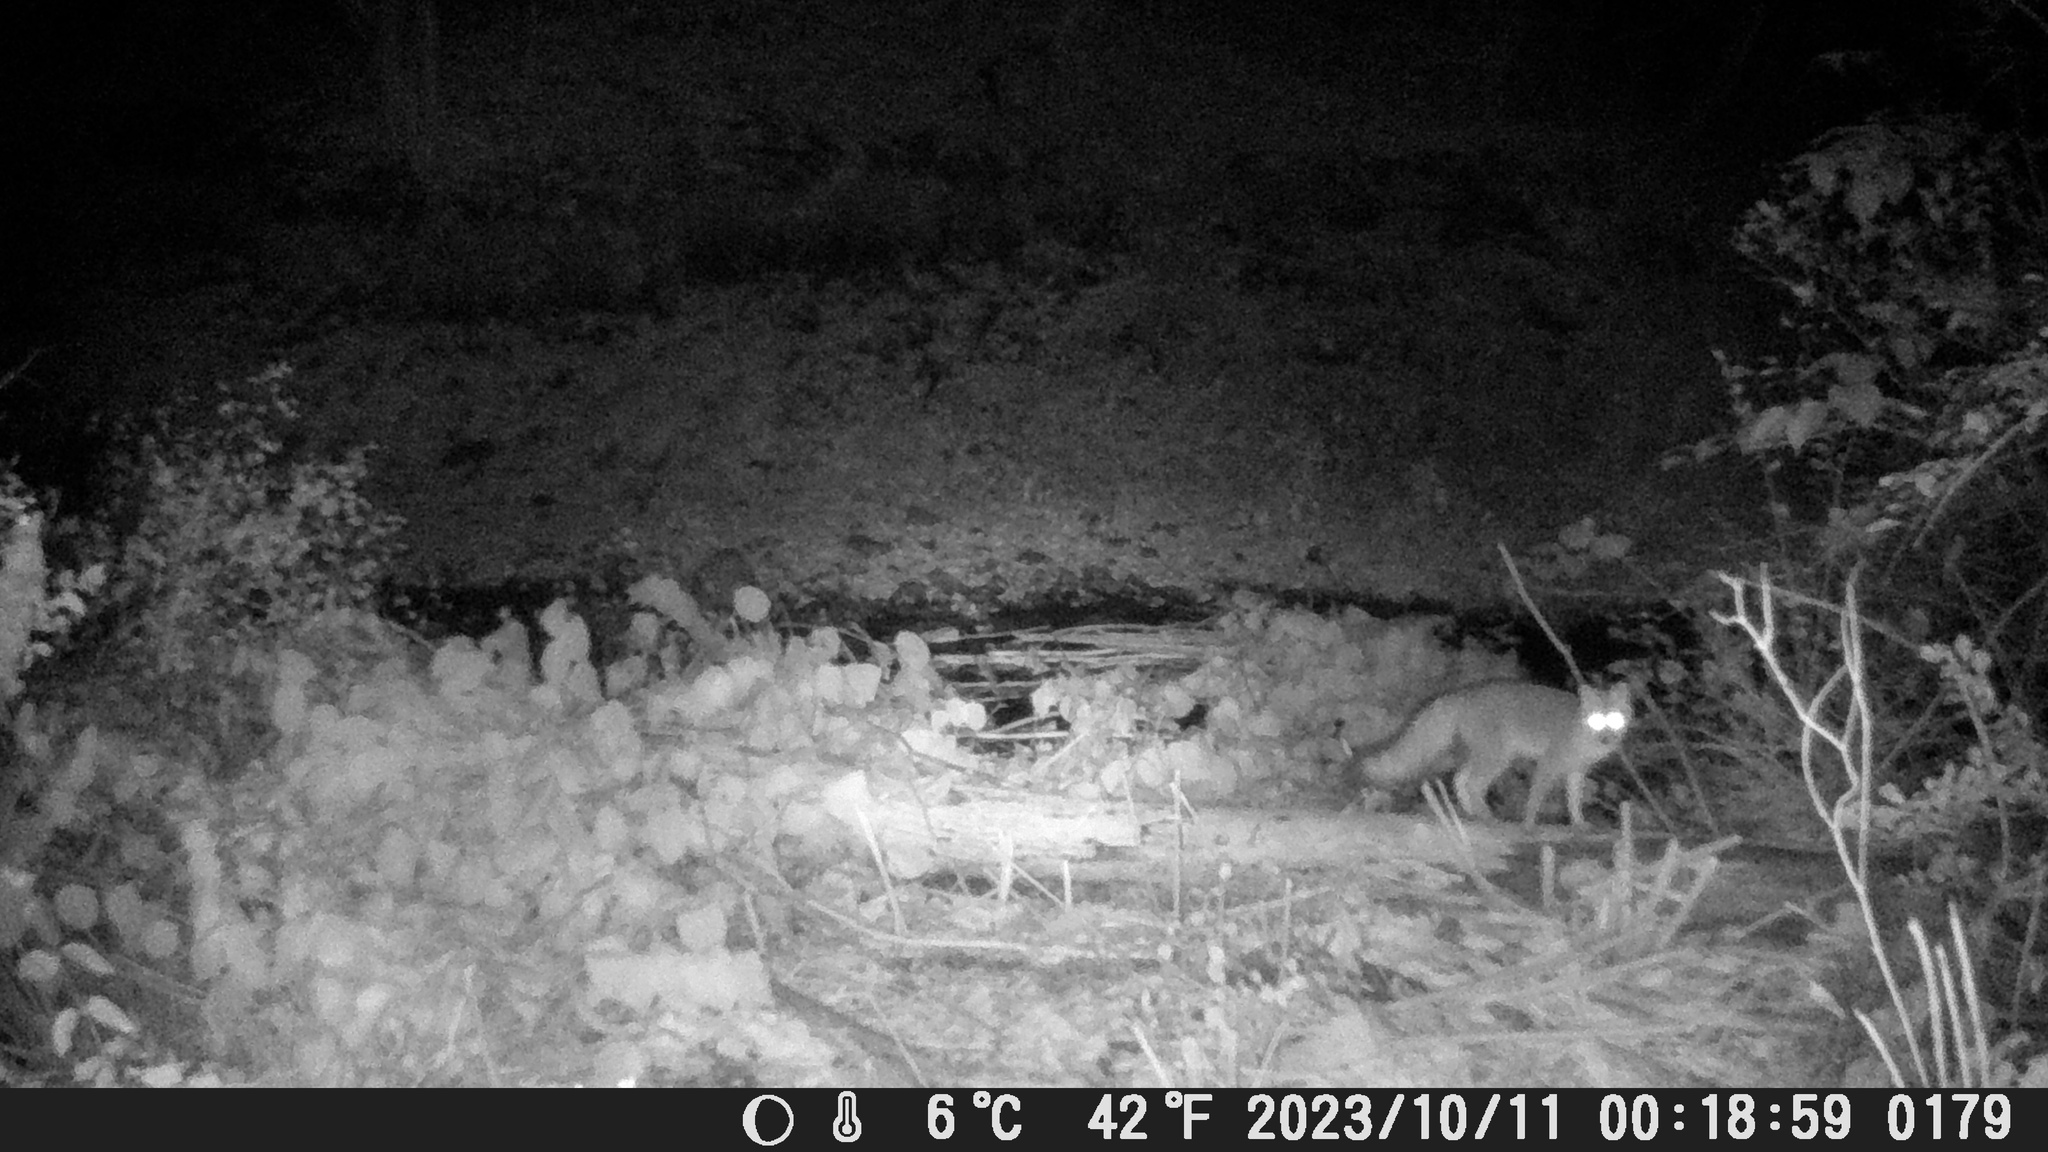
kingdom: Animalia
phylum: Chordata
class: Mammalia
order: Carnivora
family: Canidae
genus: Urocyon
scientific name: Urocyon cinereoargenteus
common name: Gray fox
